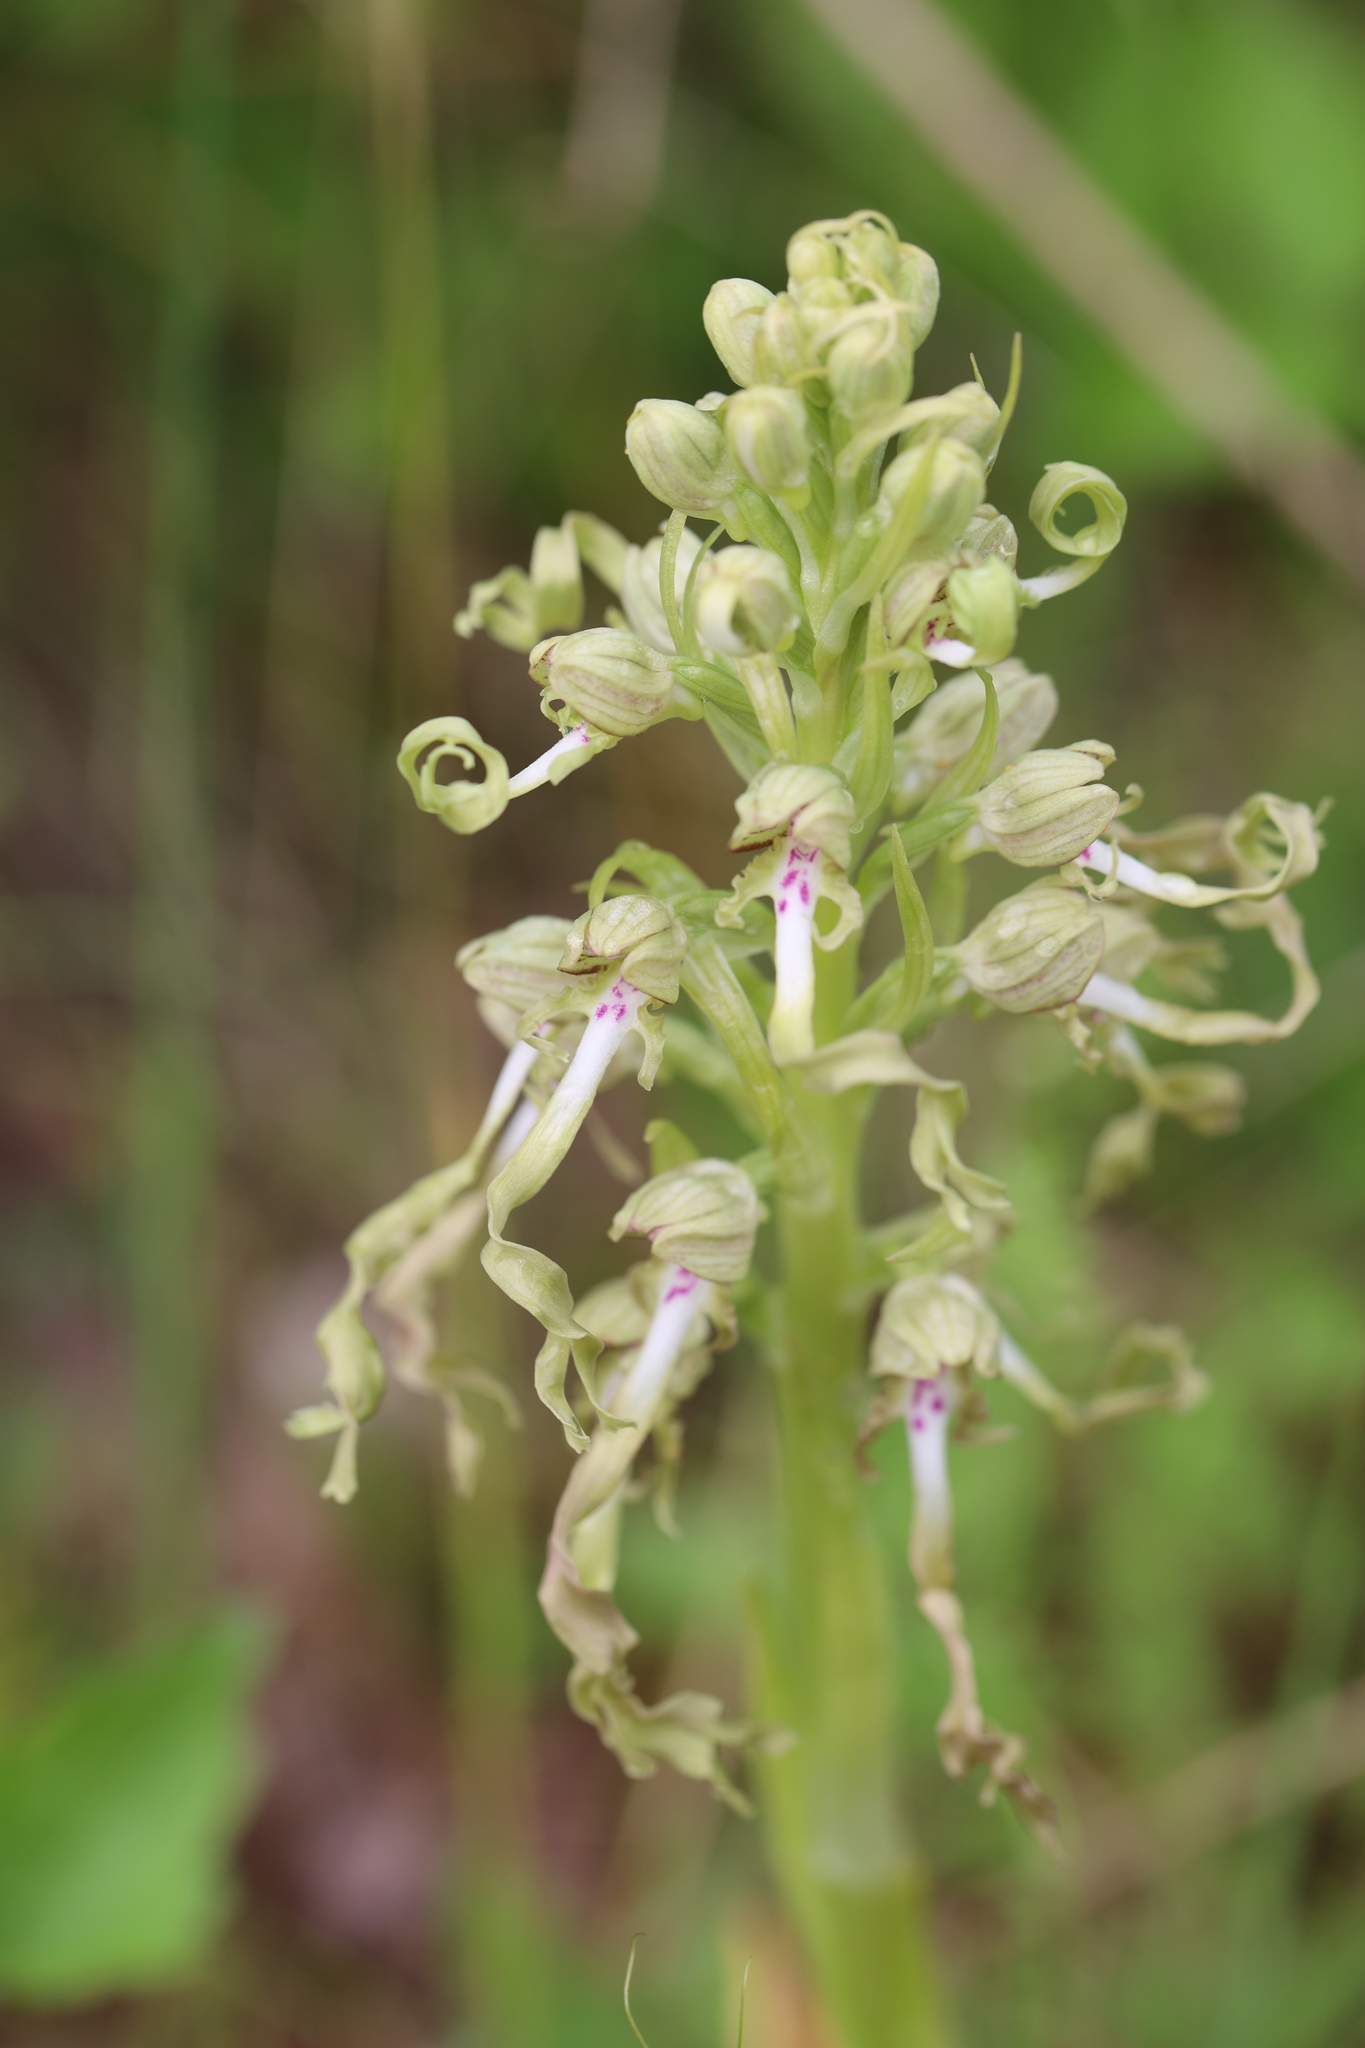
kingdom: Plantae
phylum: Tracheophyta
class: Liliopsida
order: Asparagales
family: Orchidaceae
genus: Himantoglossum
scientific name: Himantoglossum hircinum
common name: Lizard orchid
